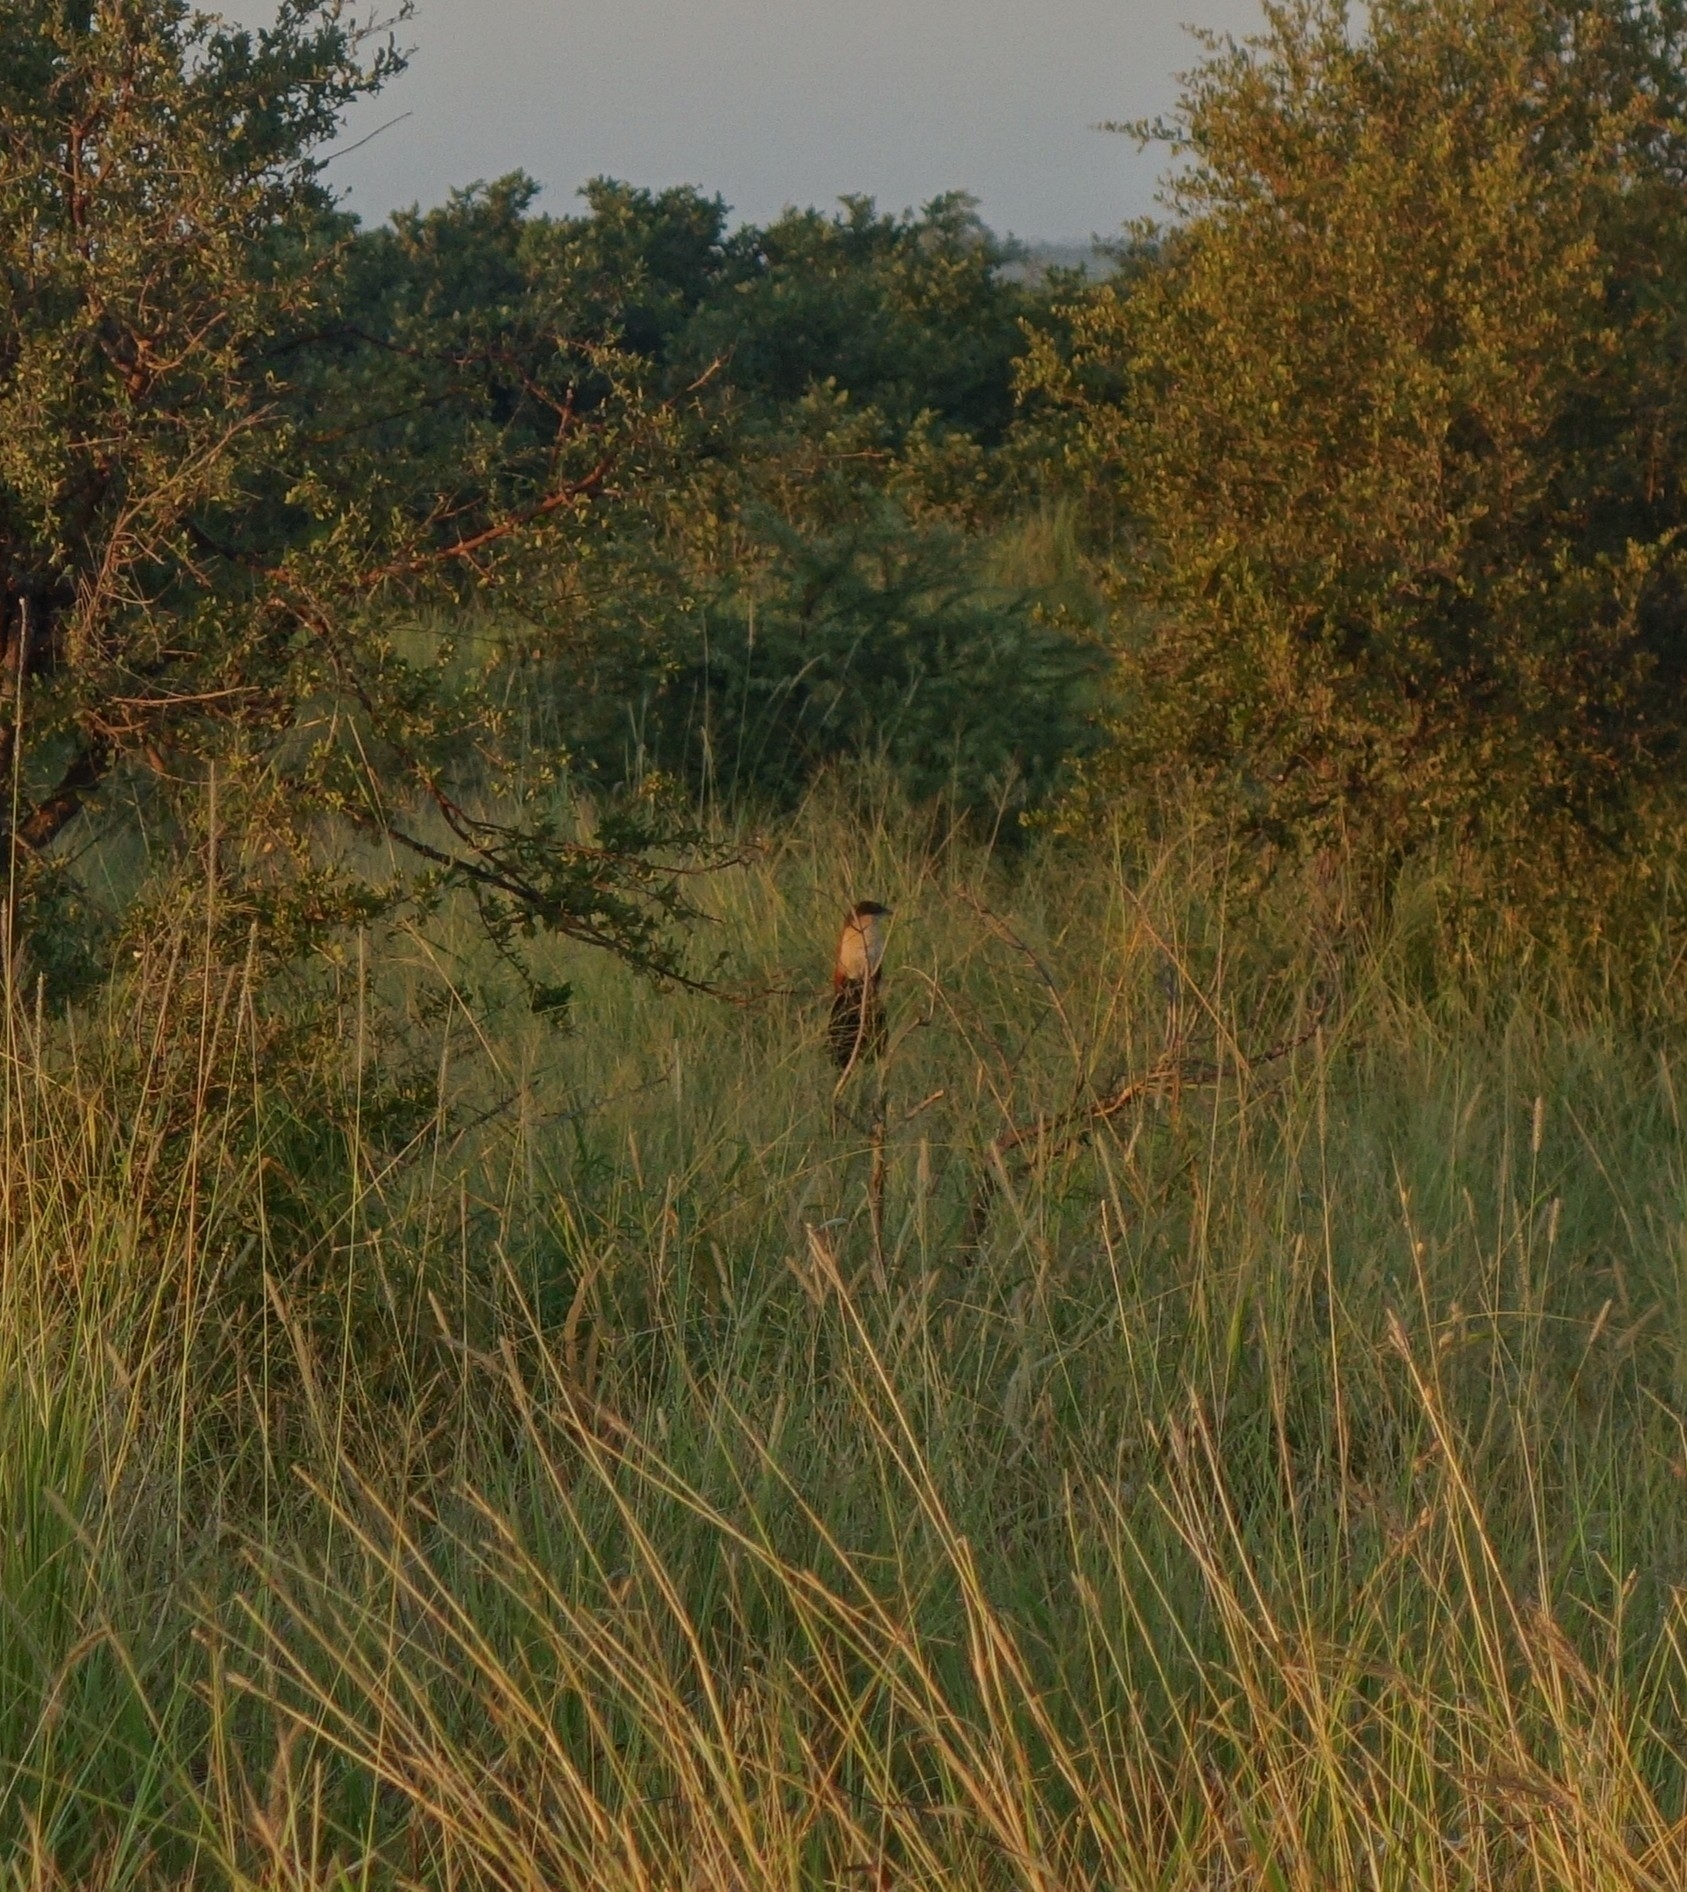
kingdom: Animalia
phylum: Chordata
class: Aves
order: Cuculiformes
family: Cuculidae
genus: Centropus
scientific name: Centropus superciliosus
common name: White-browed coucal
